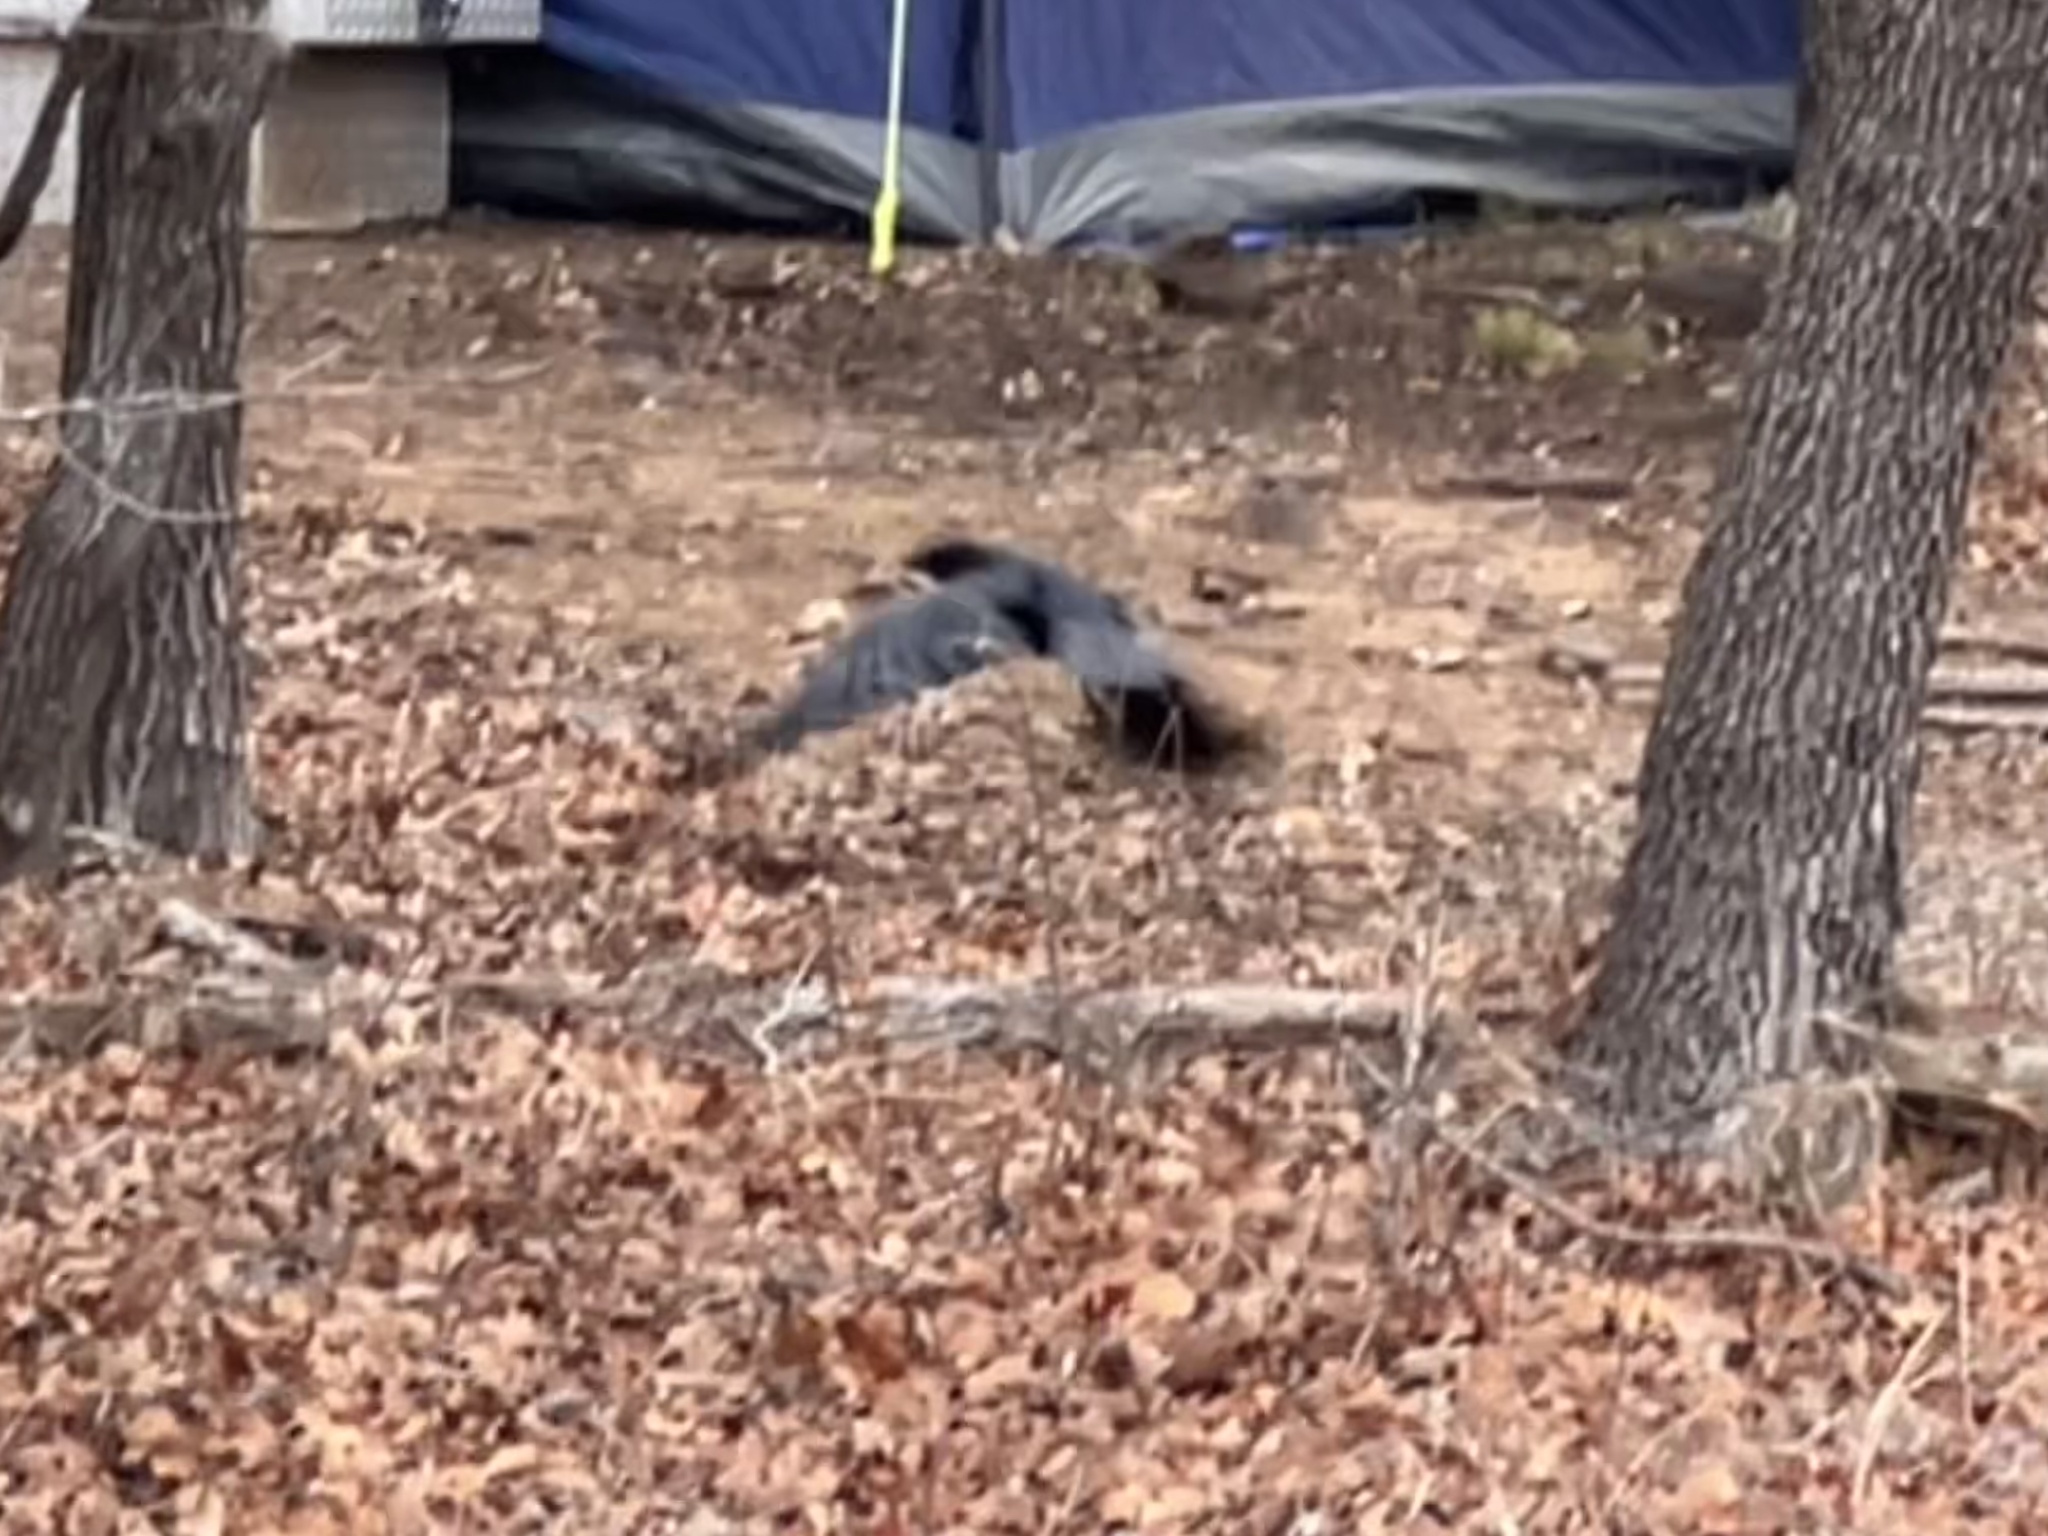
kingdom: Animalia
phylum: Chordata
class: Aves
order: Passeriformes
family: Corvidae
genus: Corvus
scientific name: Corvus brachyrhynchos
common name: American crow
